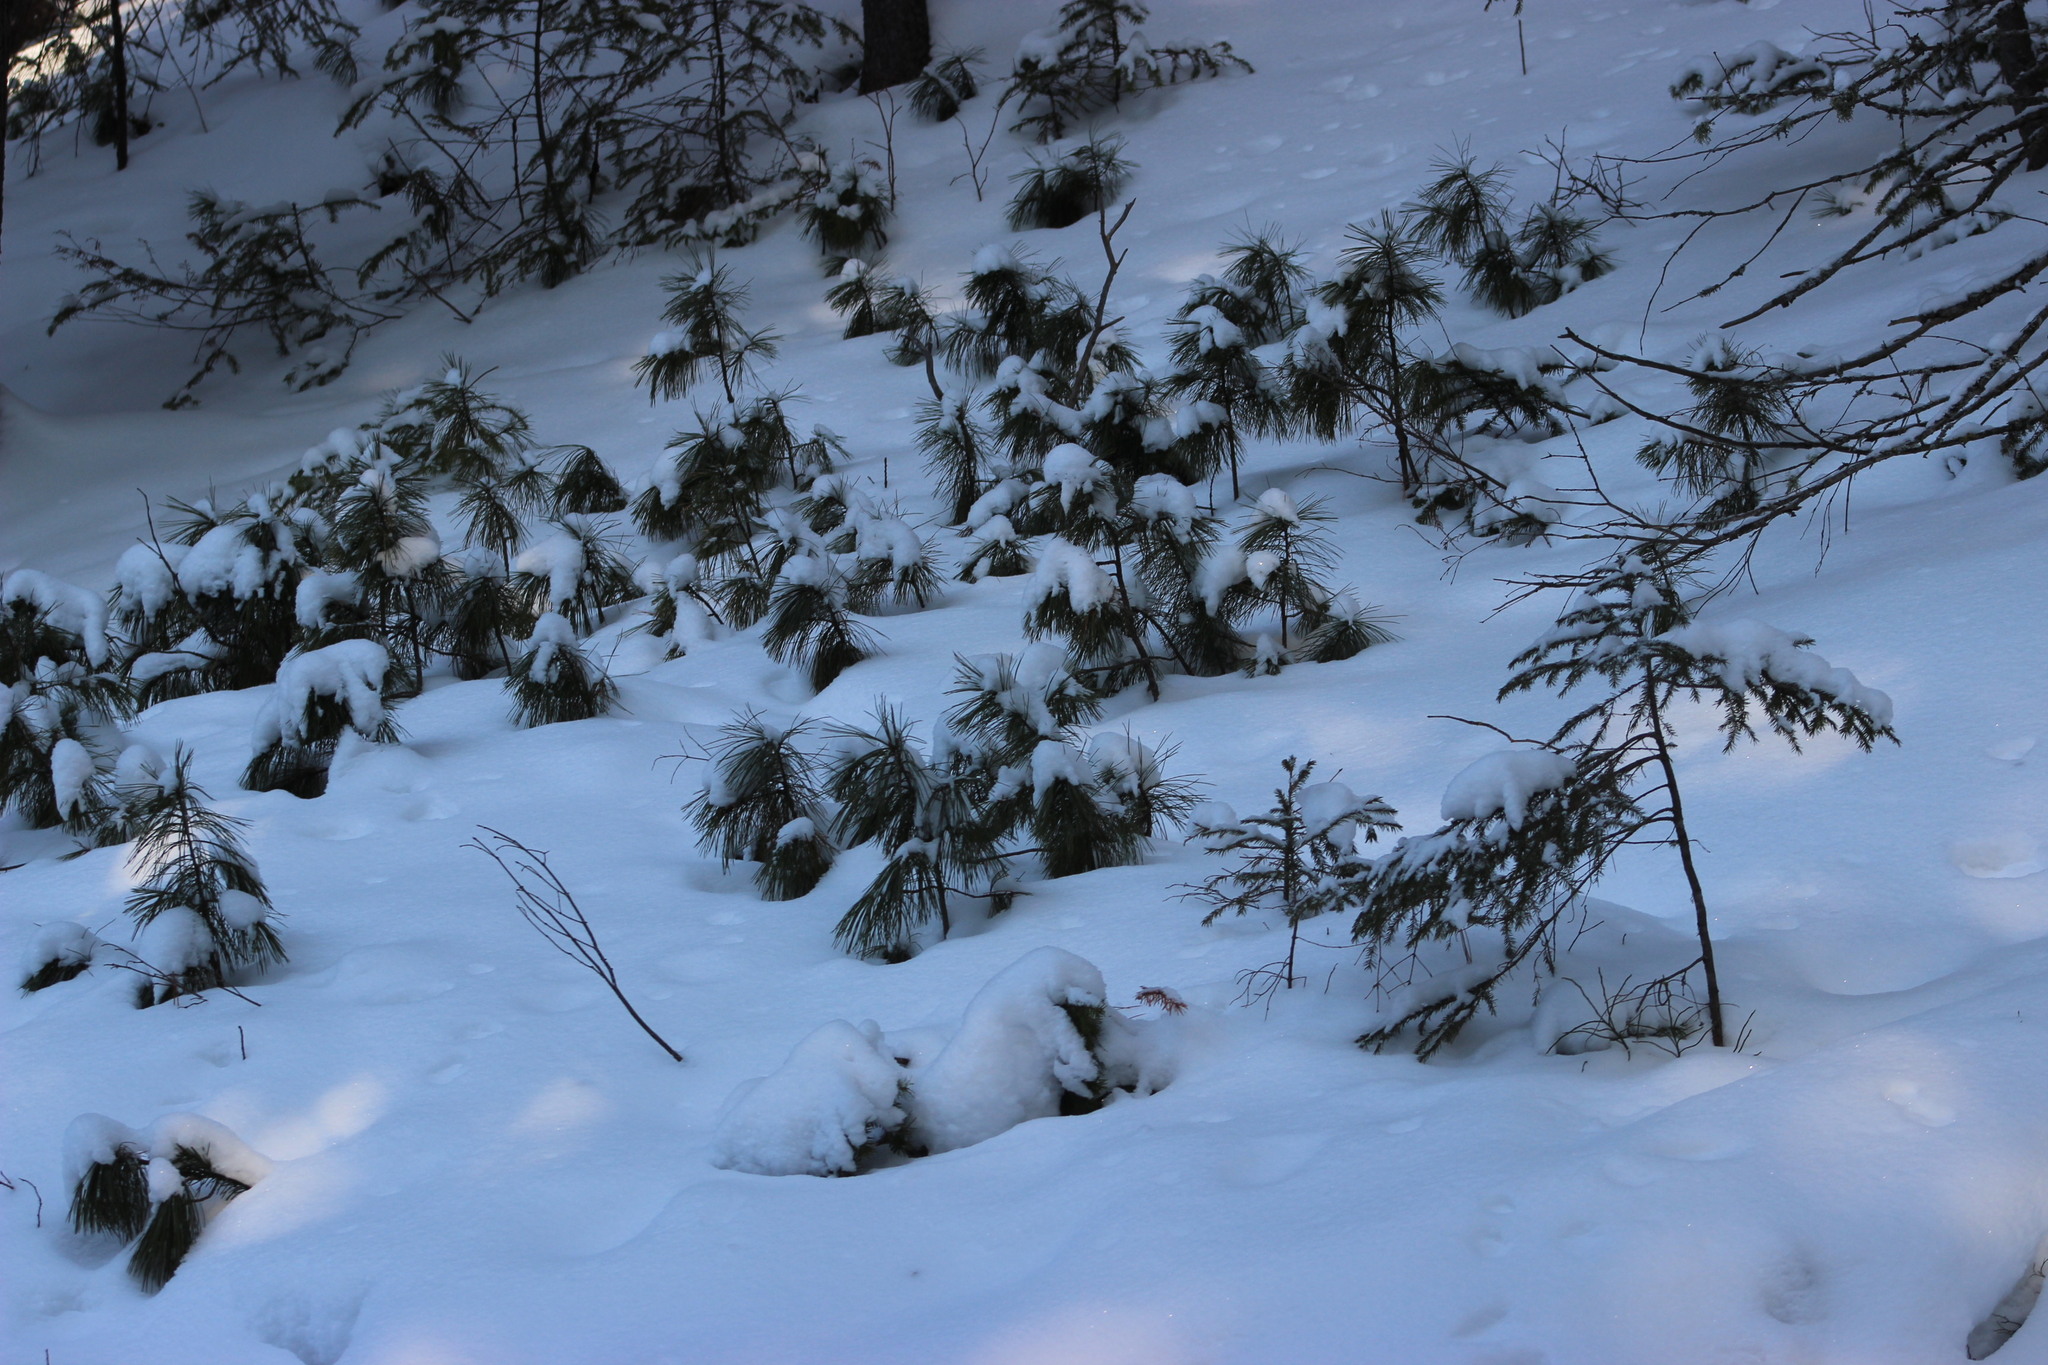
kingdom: Plantae
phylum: Tracheophyta
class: Pinopsida
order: Pinales
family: Pinaceae
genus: Pinus
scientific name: Pinus sibirica
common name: Siberian pine
